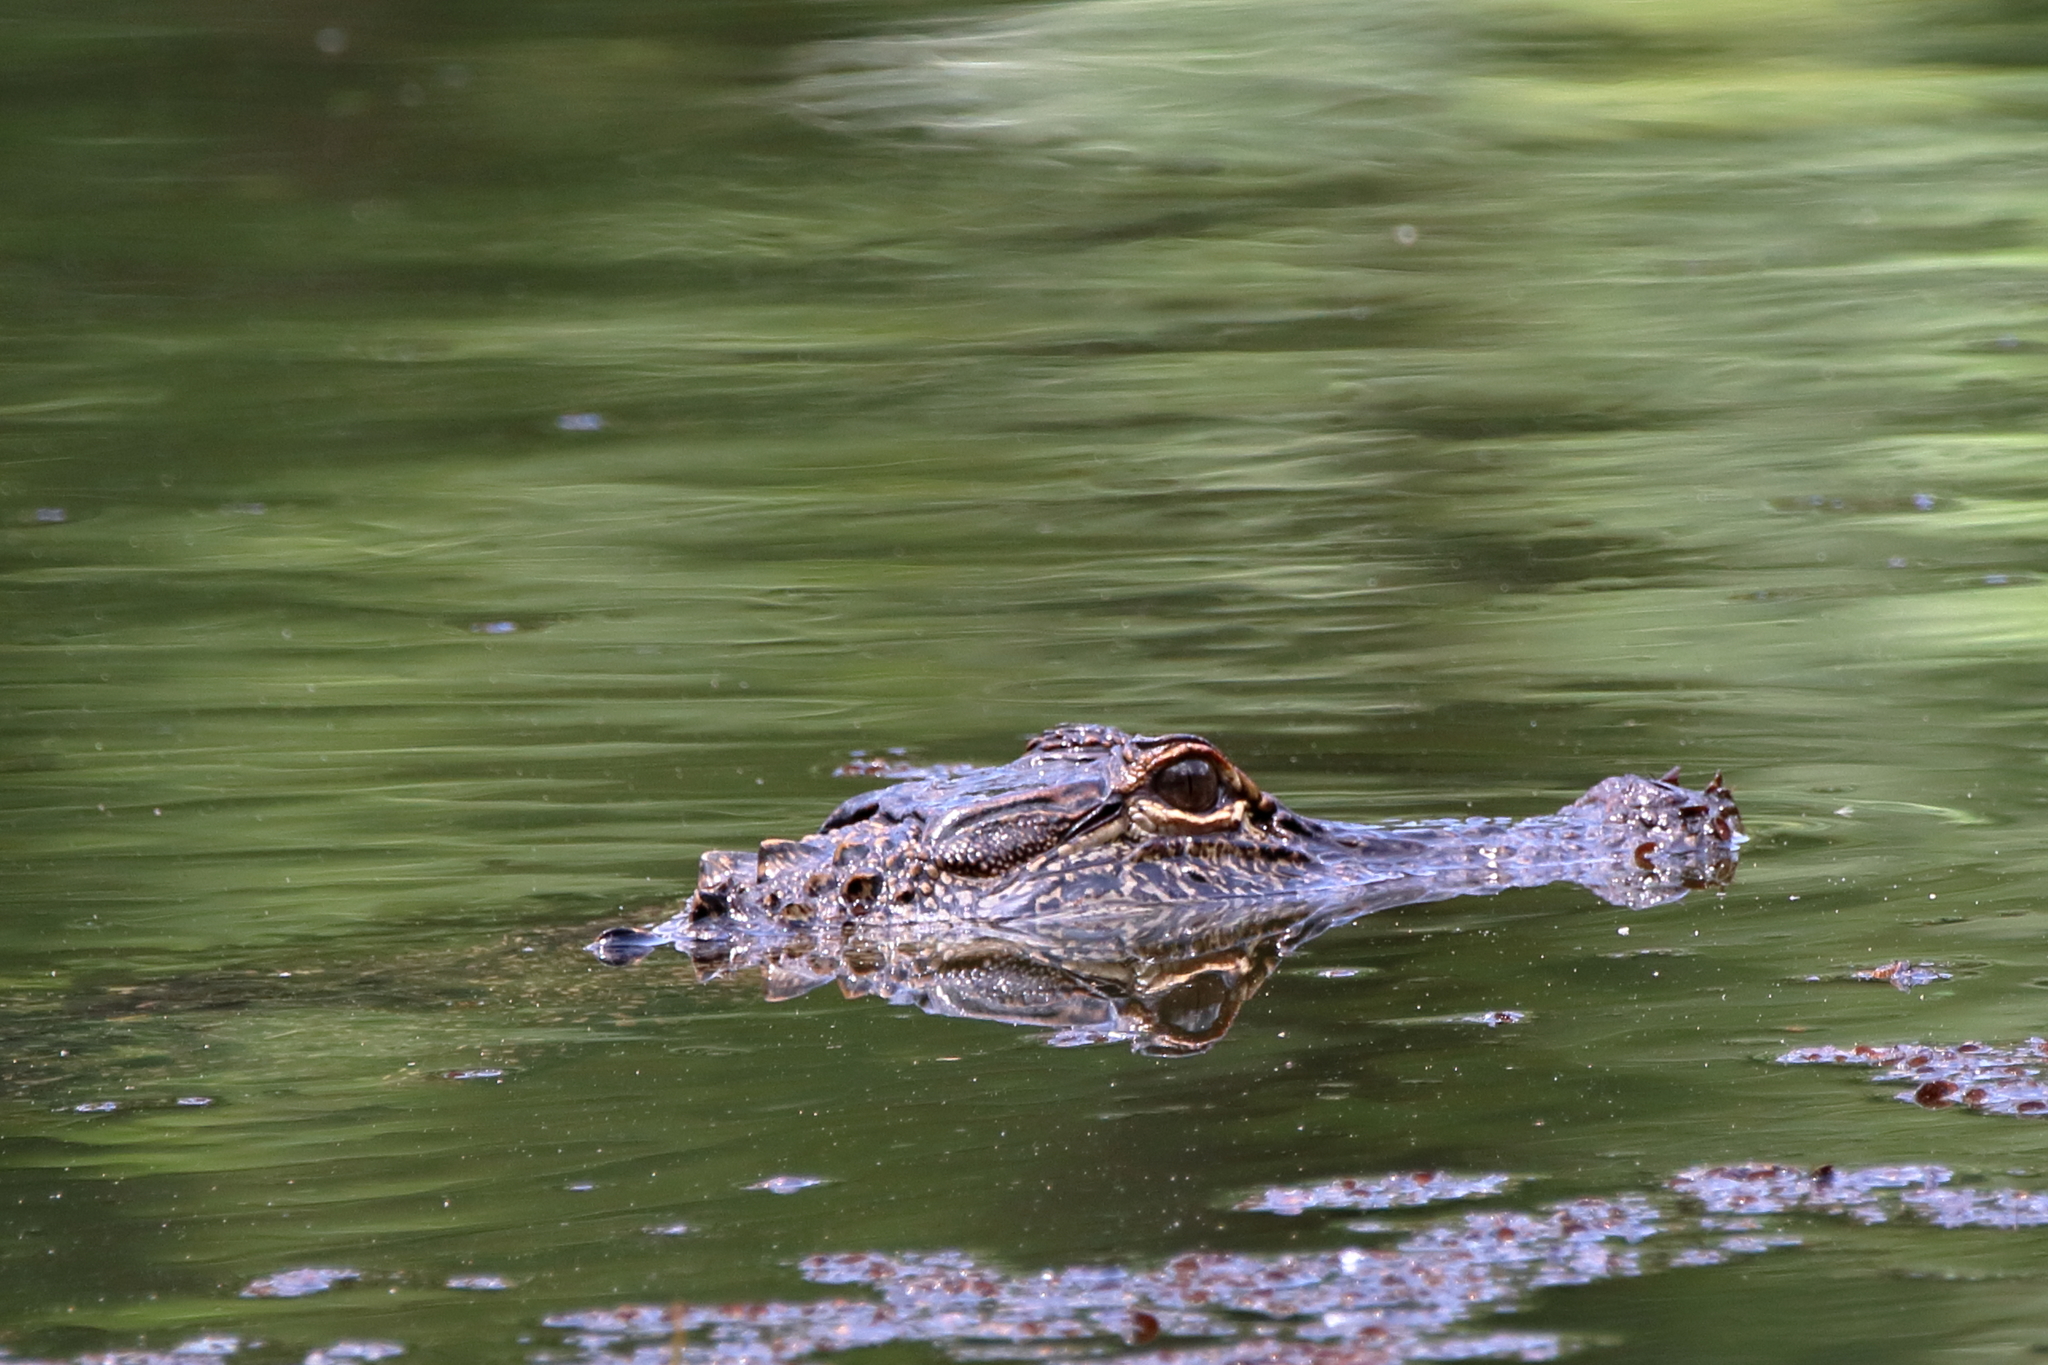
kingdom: Animalia
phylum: Chordata
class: Crocodylia
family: Alligatoridae
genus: Alligator
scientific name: Alligator mississippiensis
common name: American alligator
